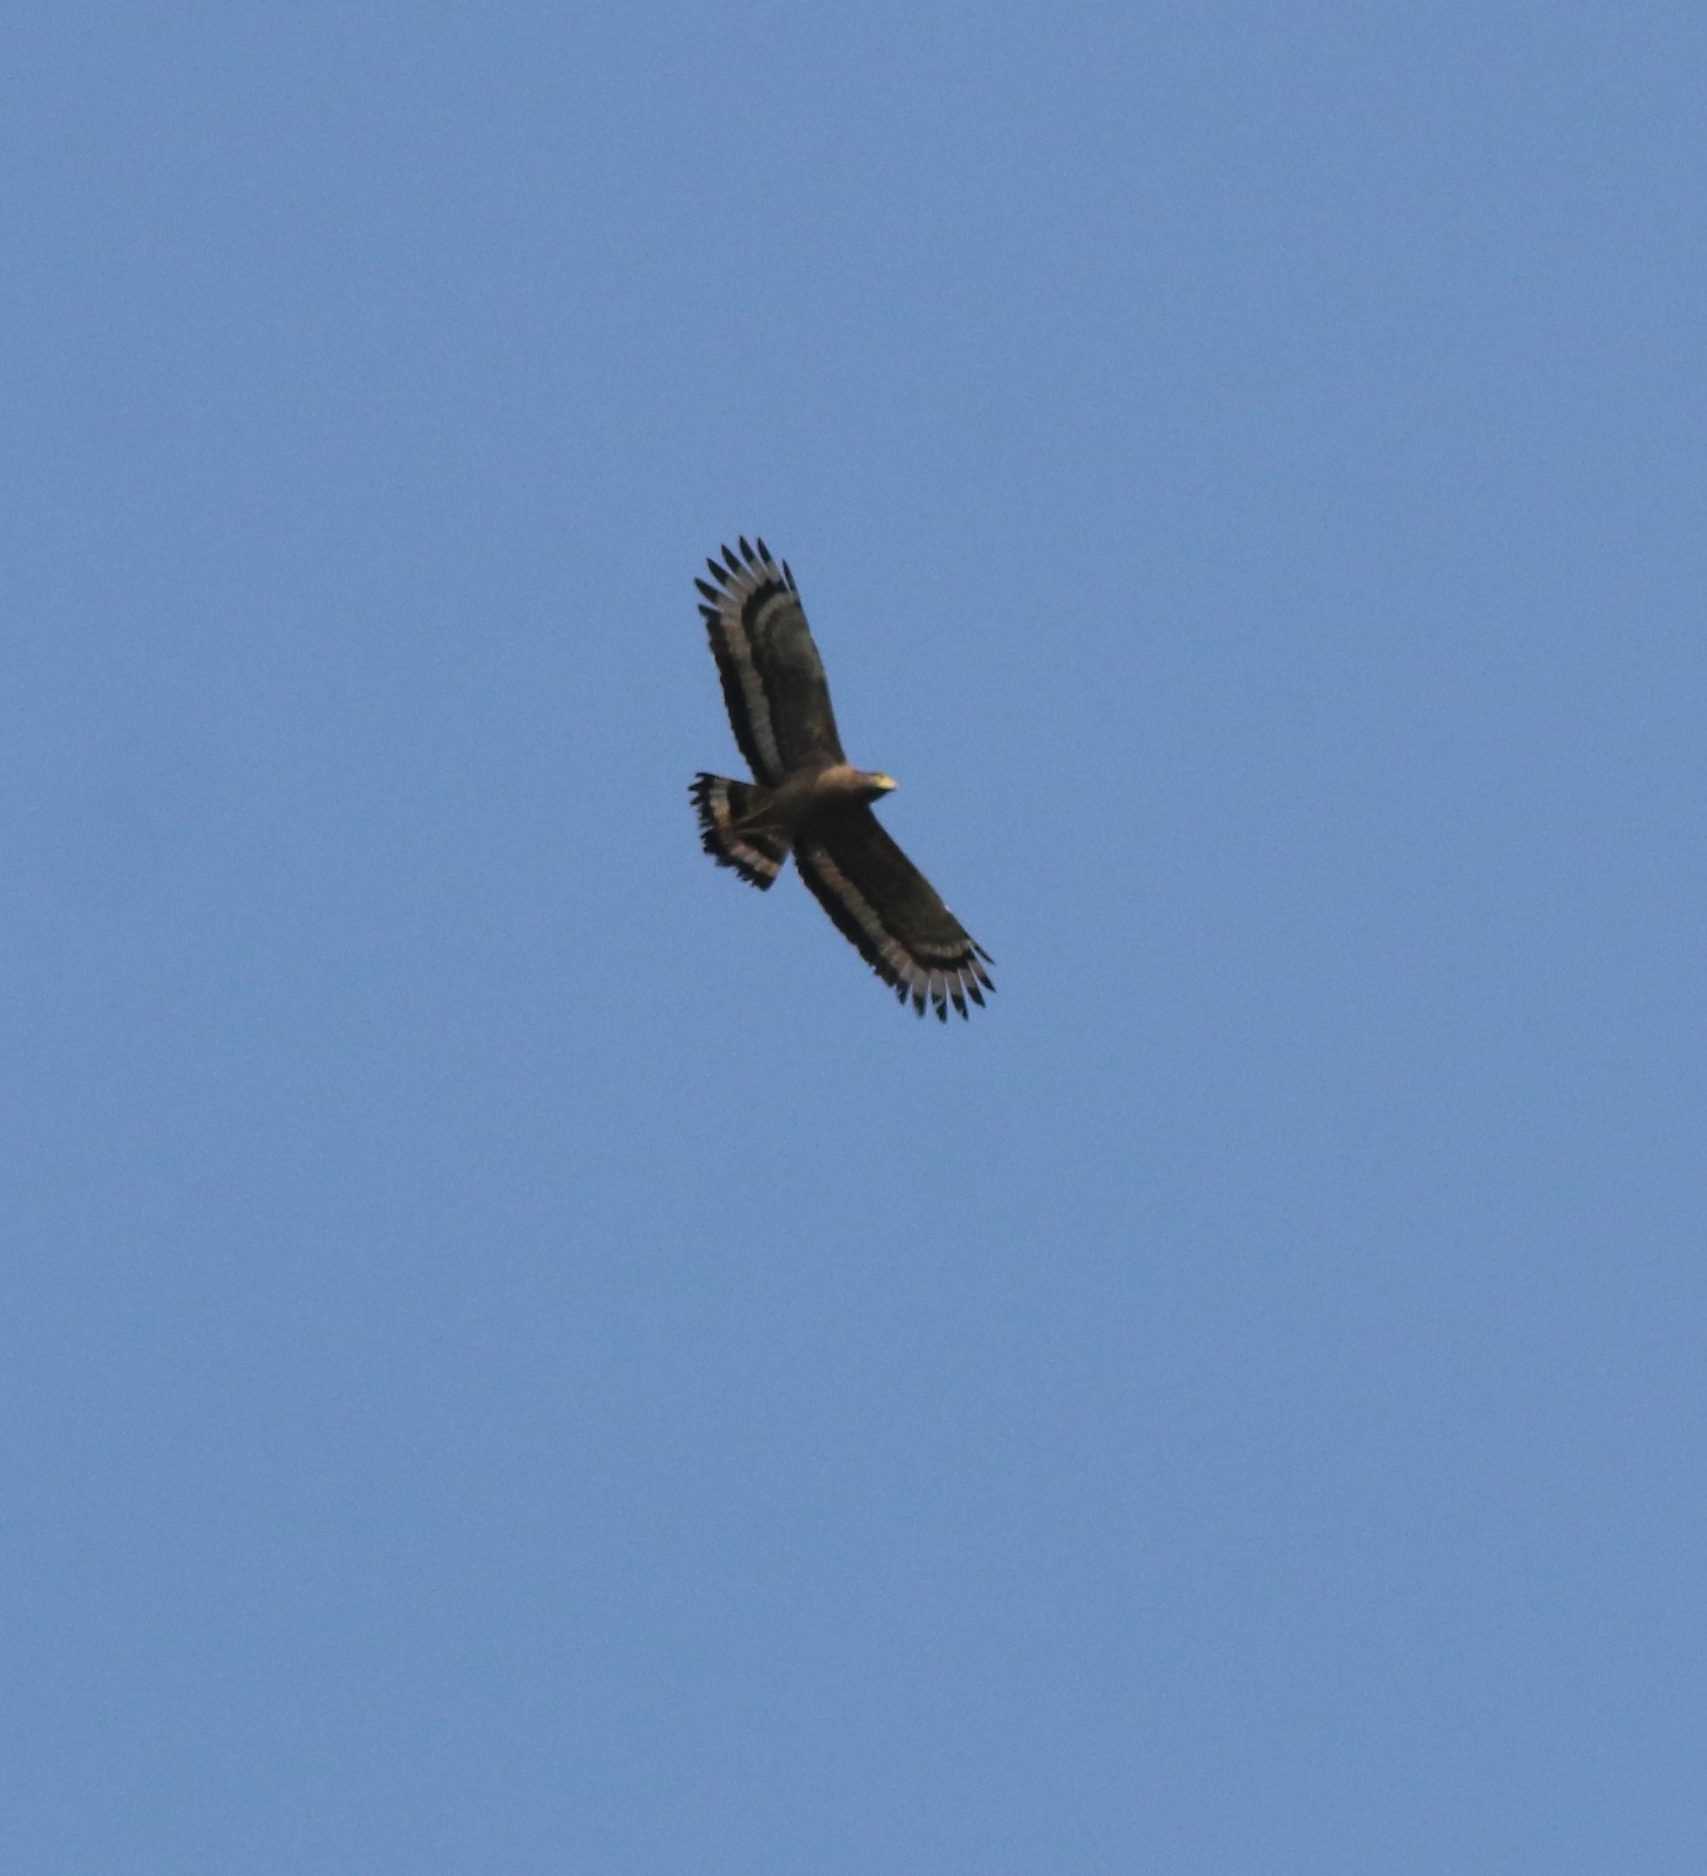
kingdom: Animalia
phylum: Chordata
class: Aves
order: Accipitriformes
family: Accipitridae
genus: Spilornis
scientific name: Spilornis cheela
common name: Crested serpent eagle
